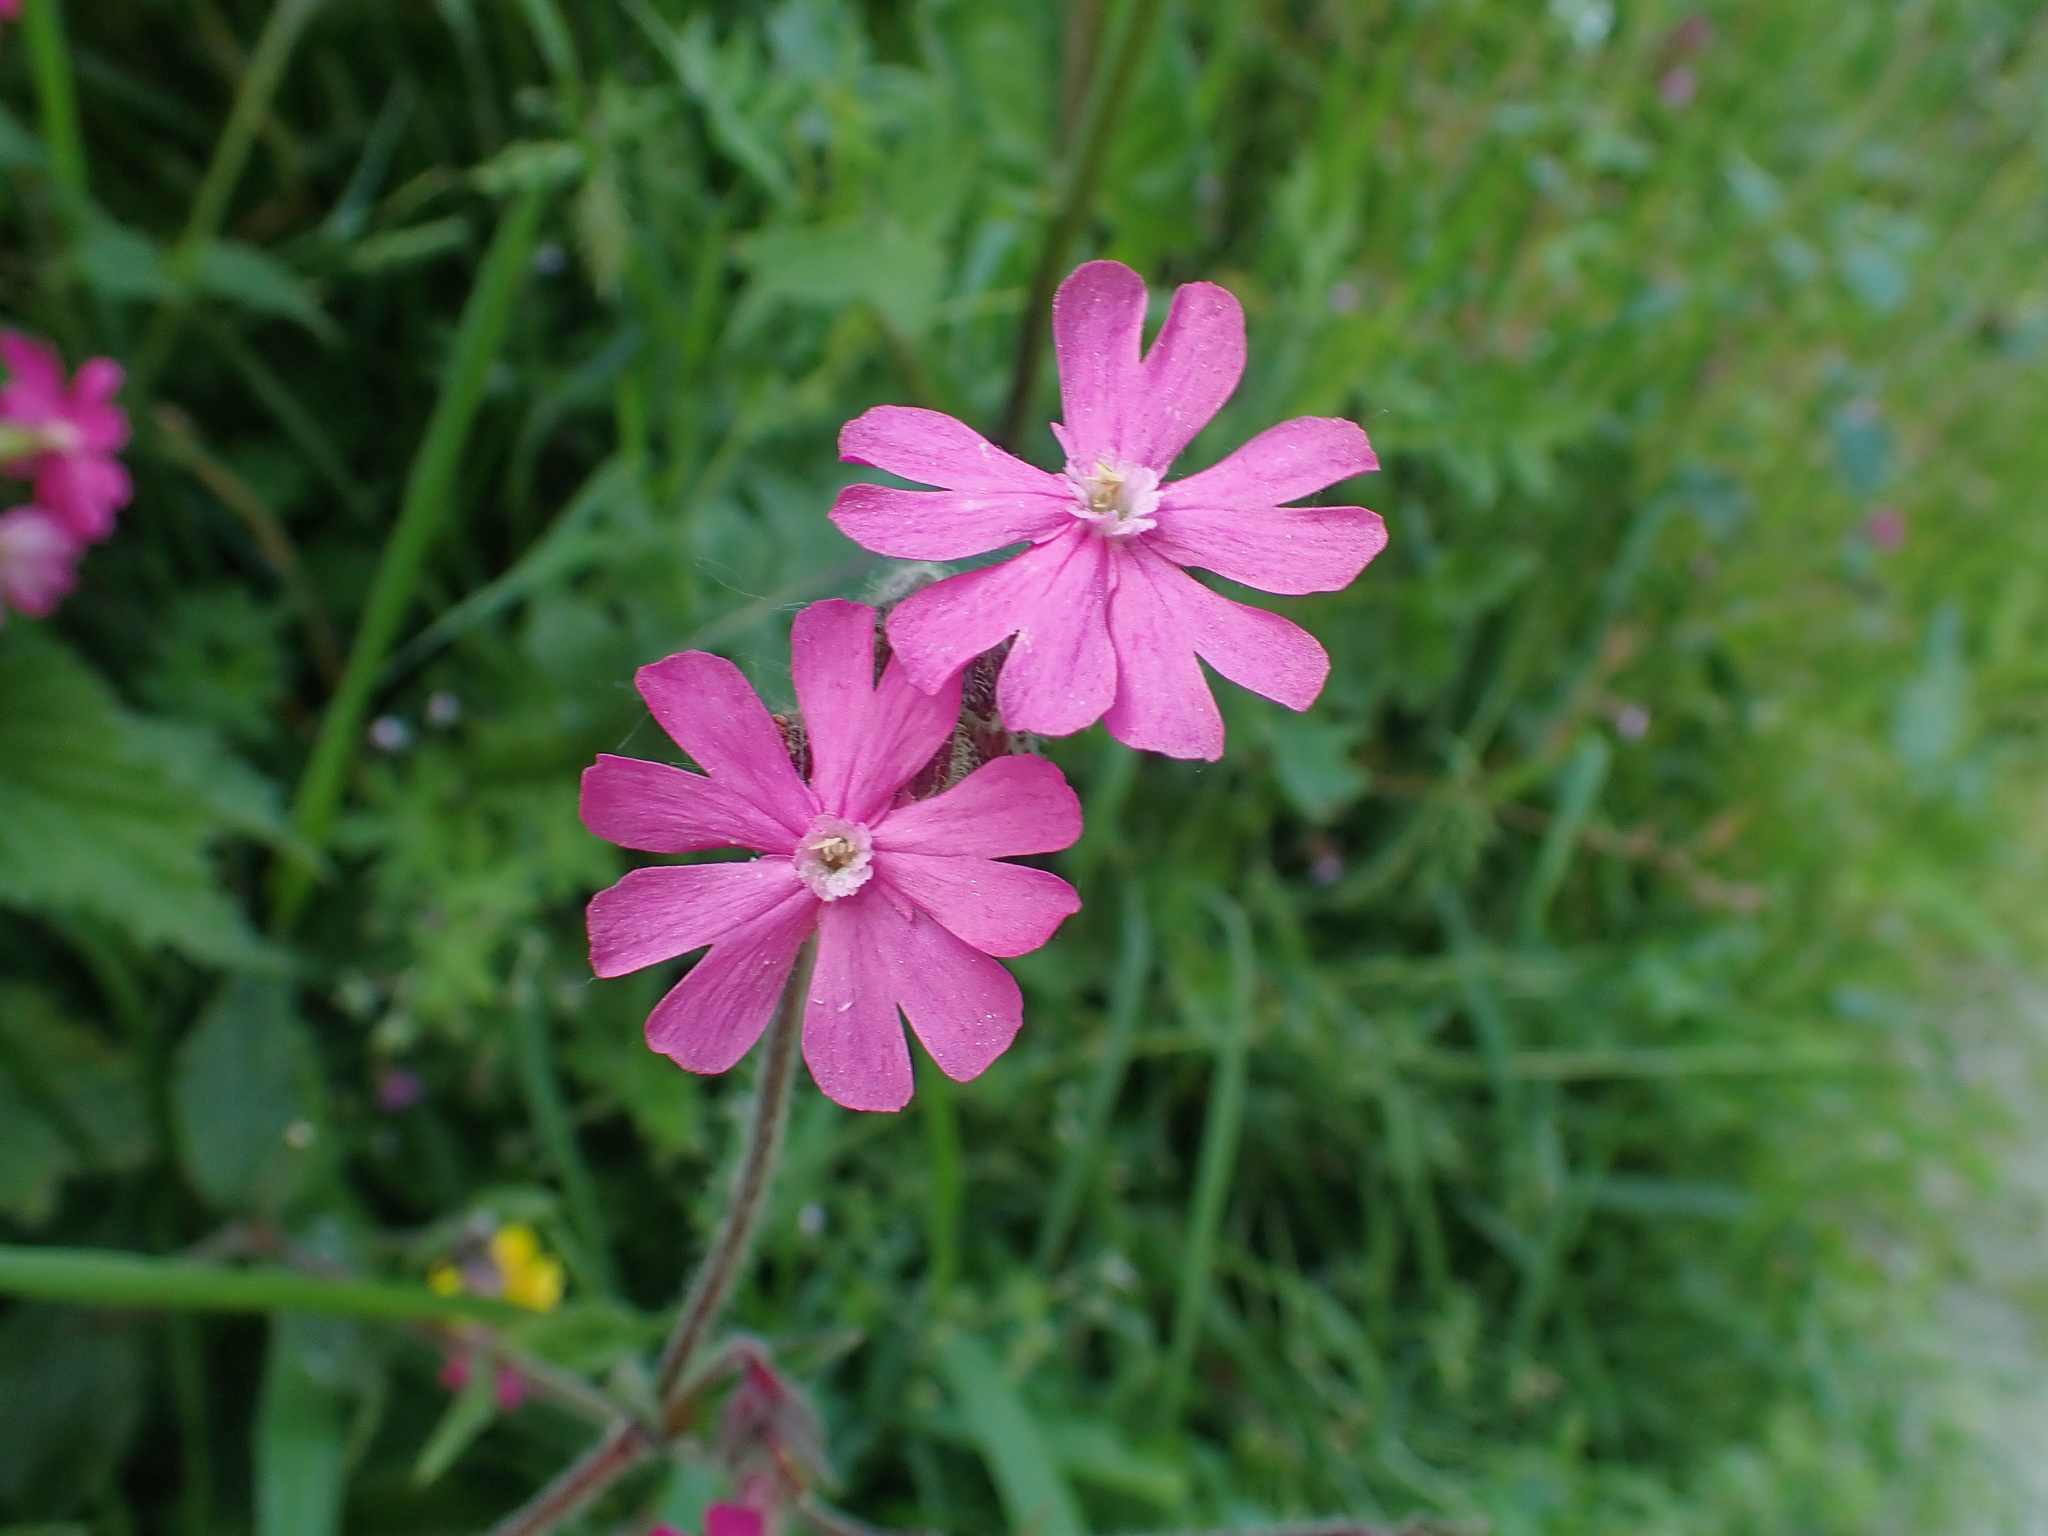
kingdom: Plantae
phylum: Tracheophyta
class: Magnoliopsida
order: Caryophyllales
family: Caryophyllaceae
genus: Silene
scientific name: Silene dioica
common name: Red campion
